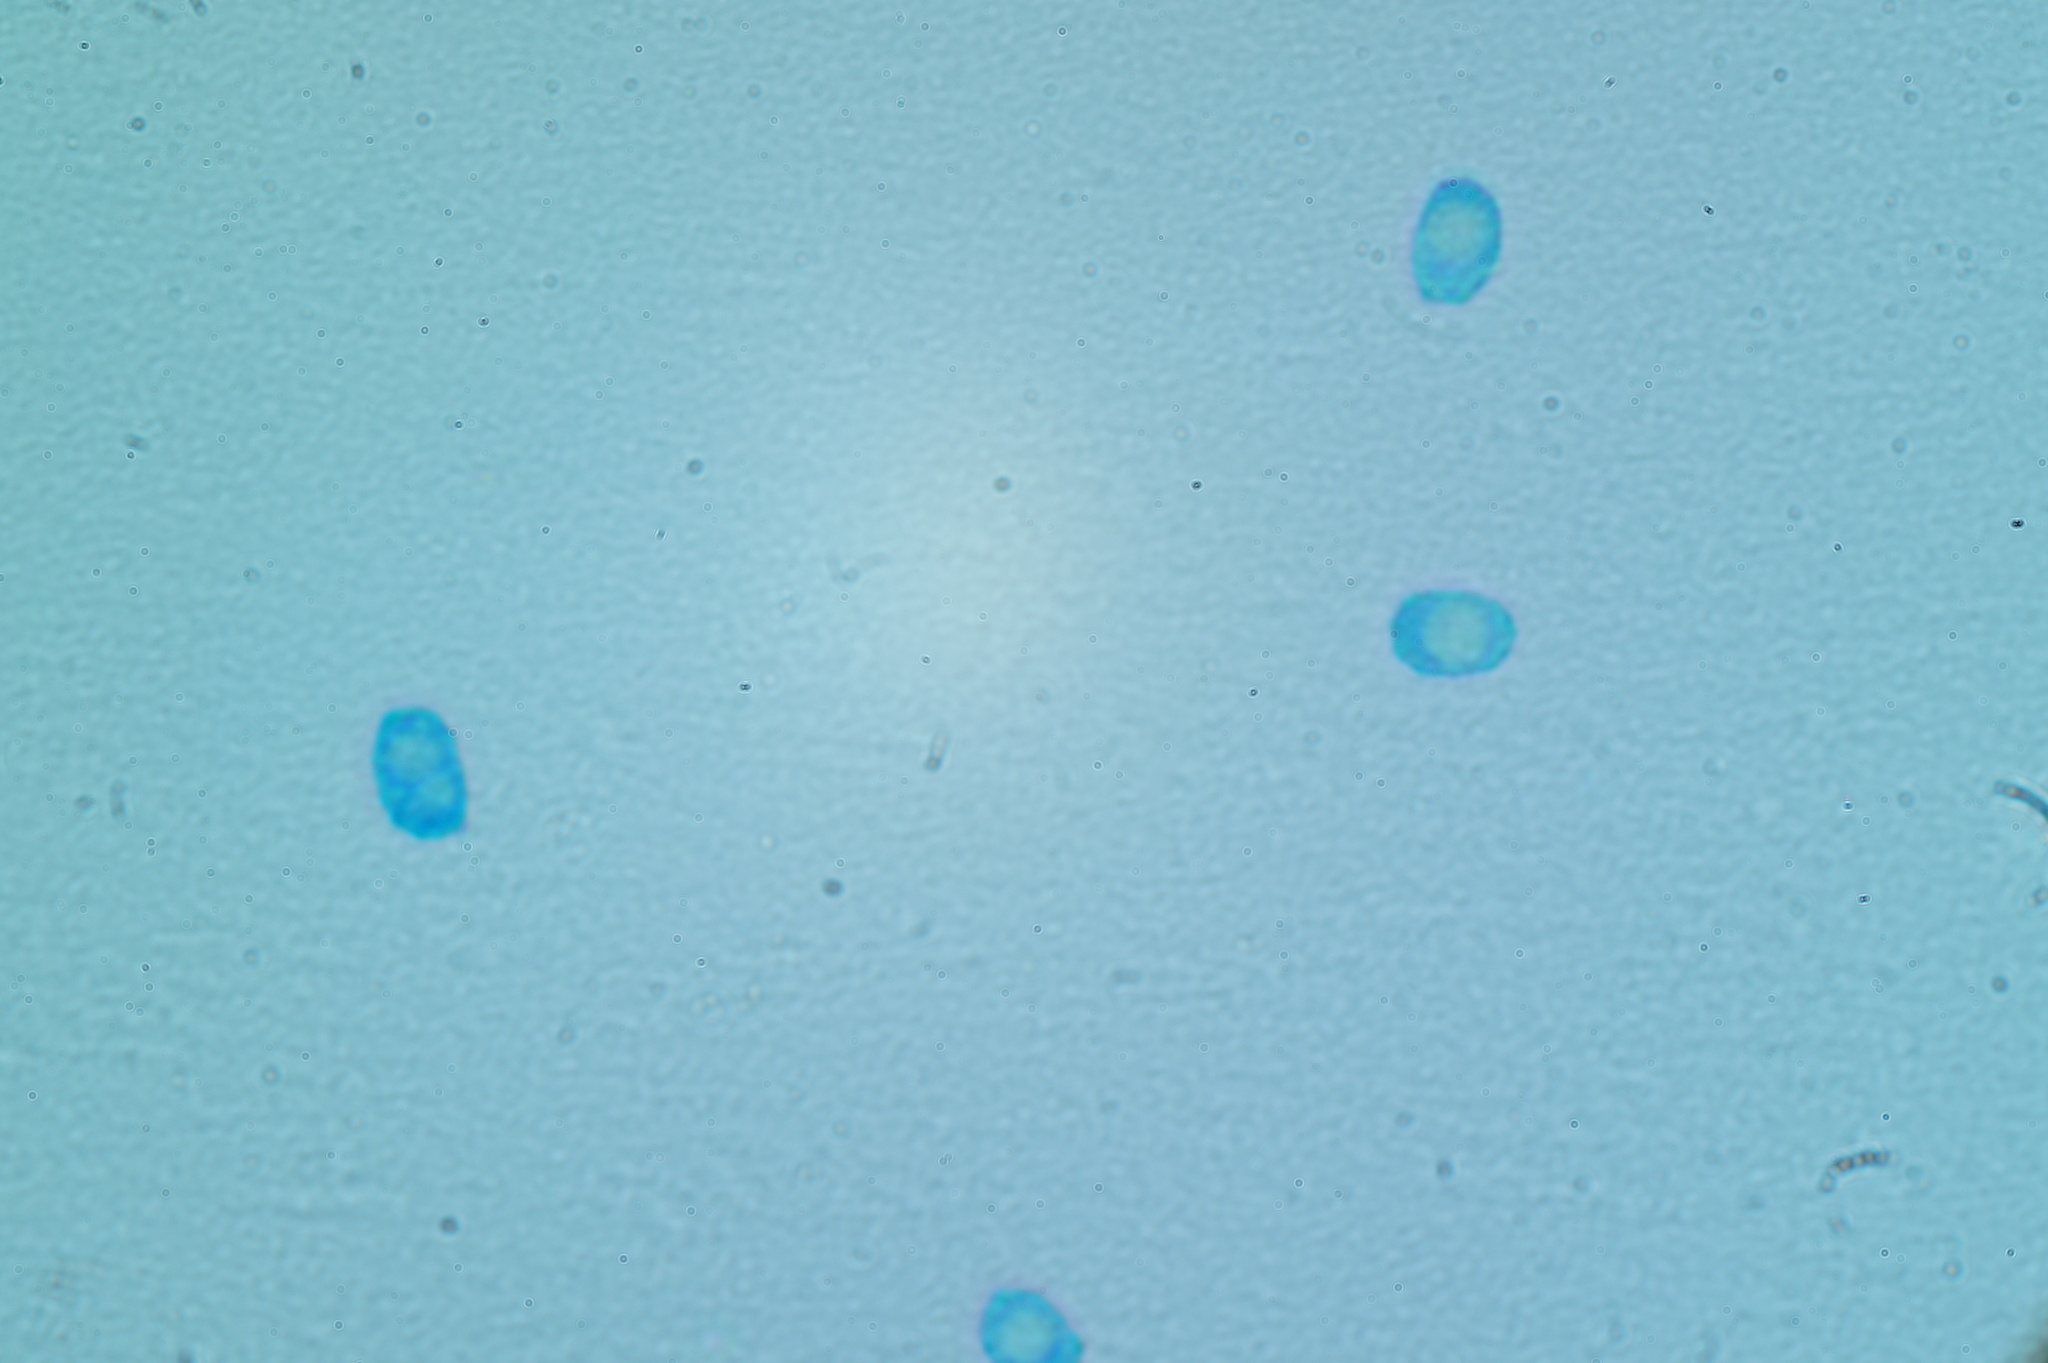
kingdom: Fungi
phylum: Basidiomycota
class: Agaricomycetes
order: Agaricales
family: Tricholomataceae
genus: Collybia
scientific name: Collybia
